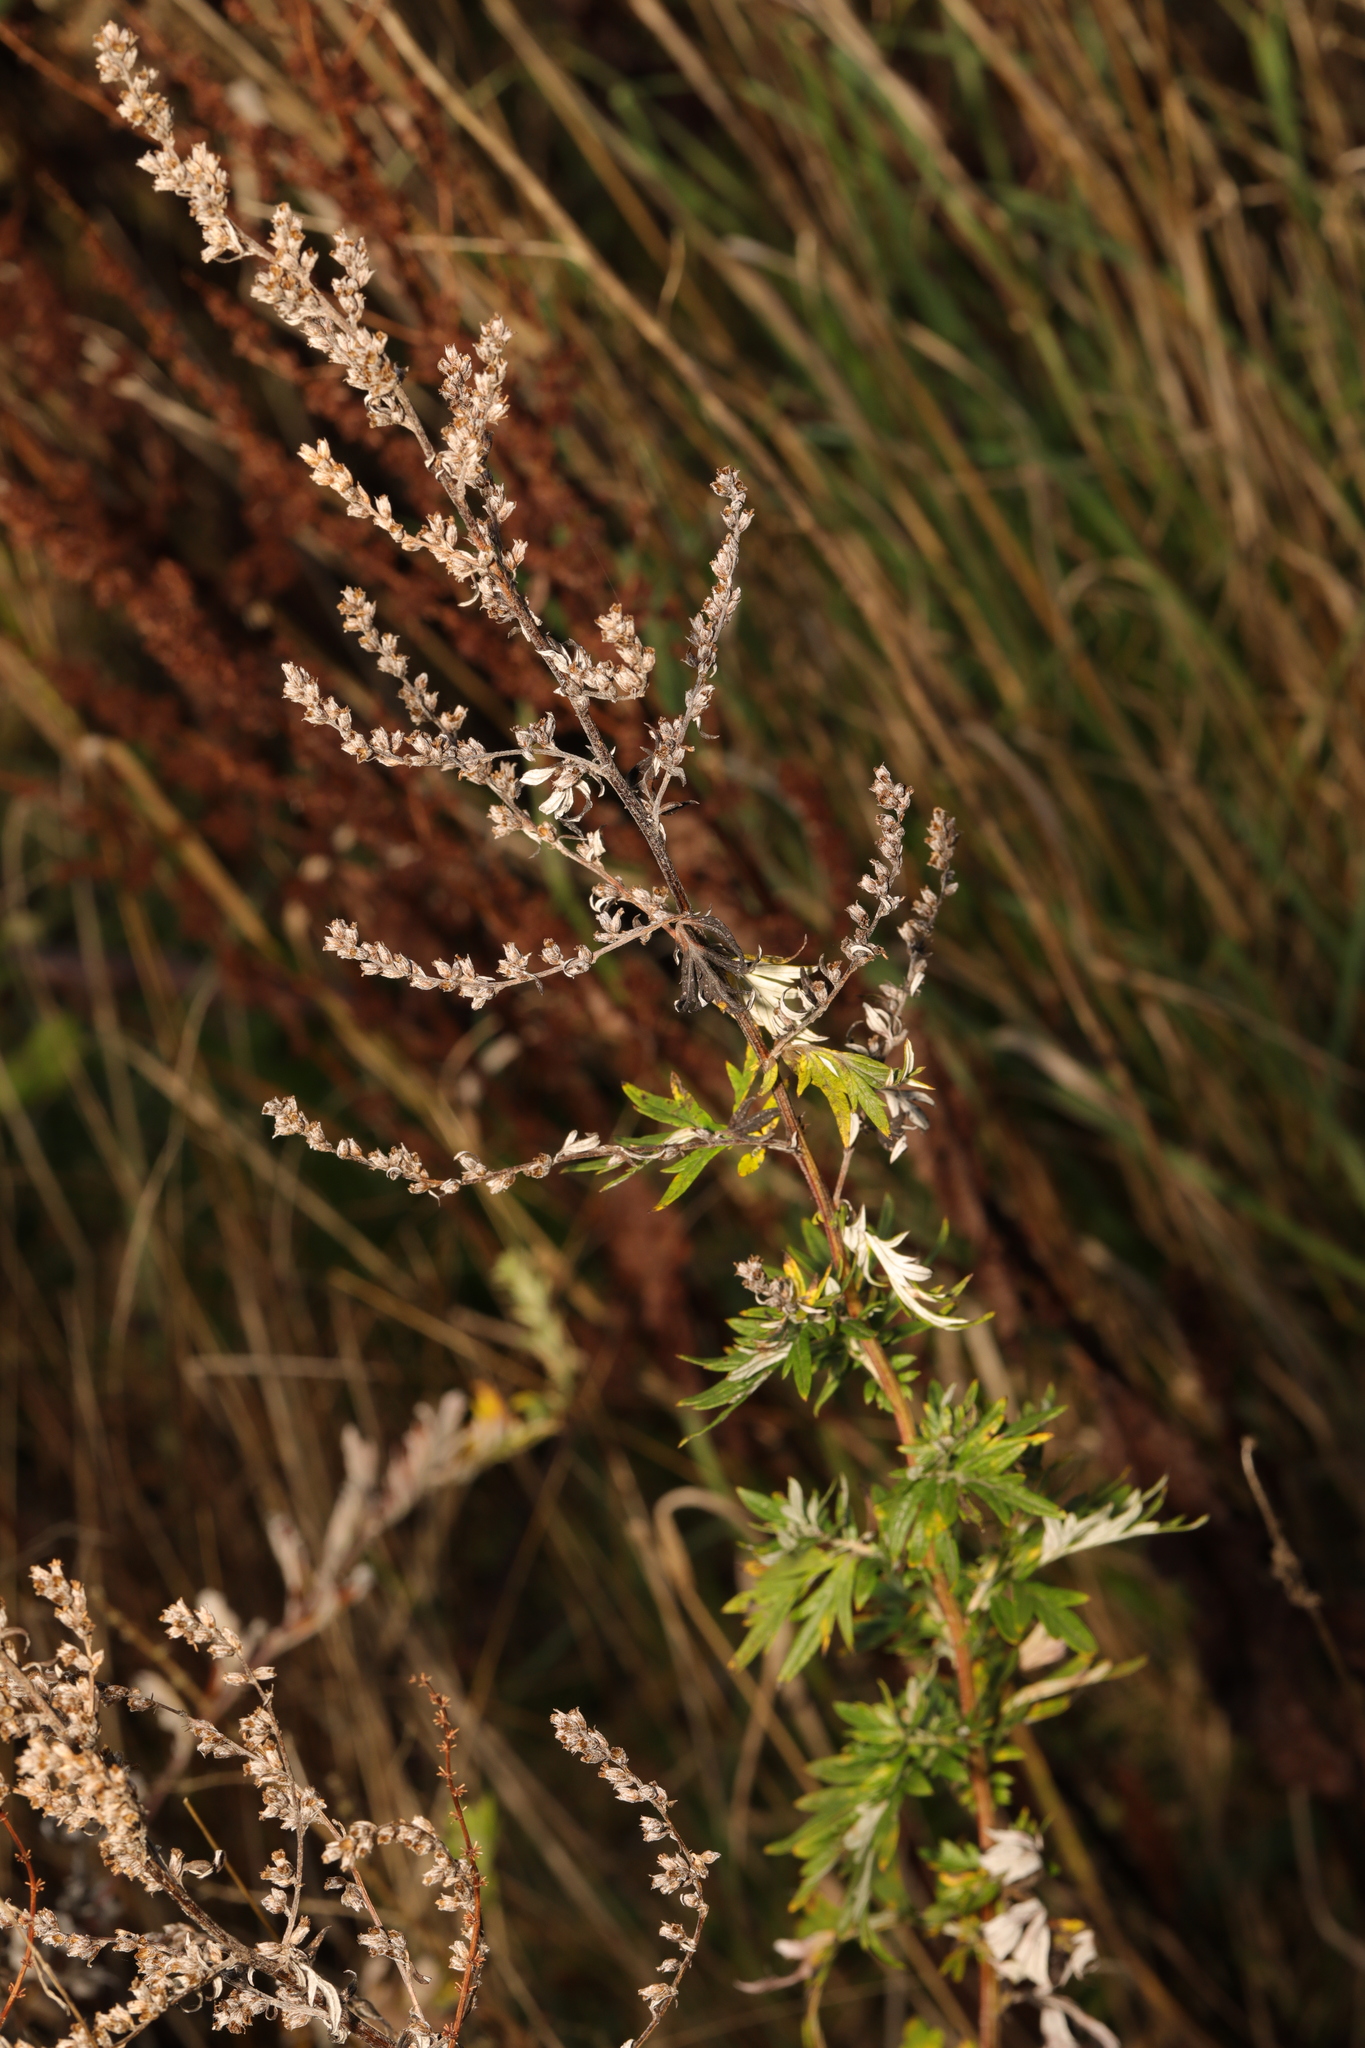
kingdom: Plantae
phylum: Tracheophyta
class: Magnoliopsida
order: Asterales
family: Asteraceae
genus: Artemisia
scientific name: Artemisia vulgaris
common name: Mugwort
